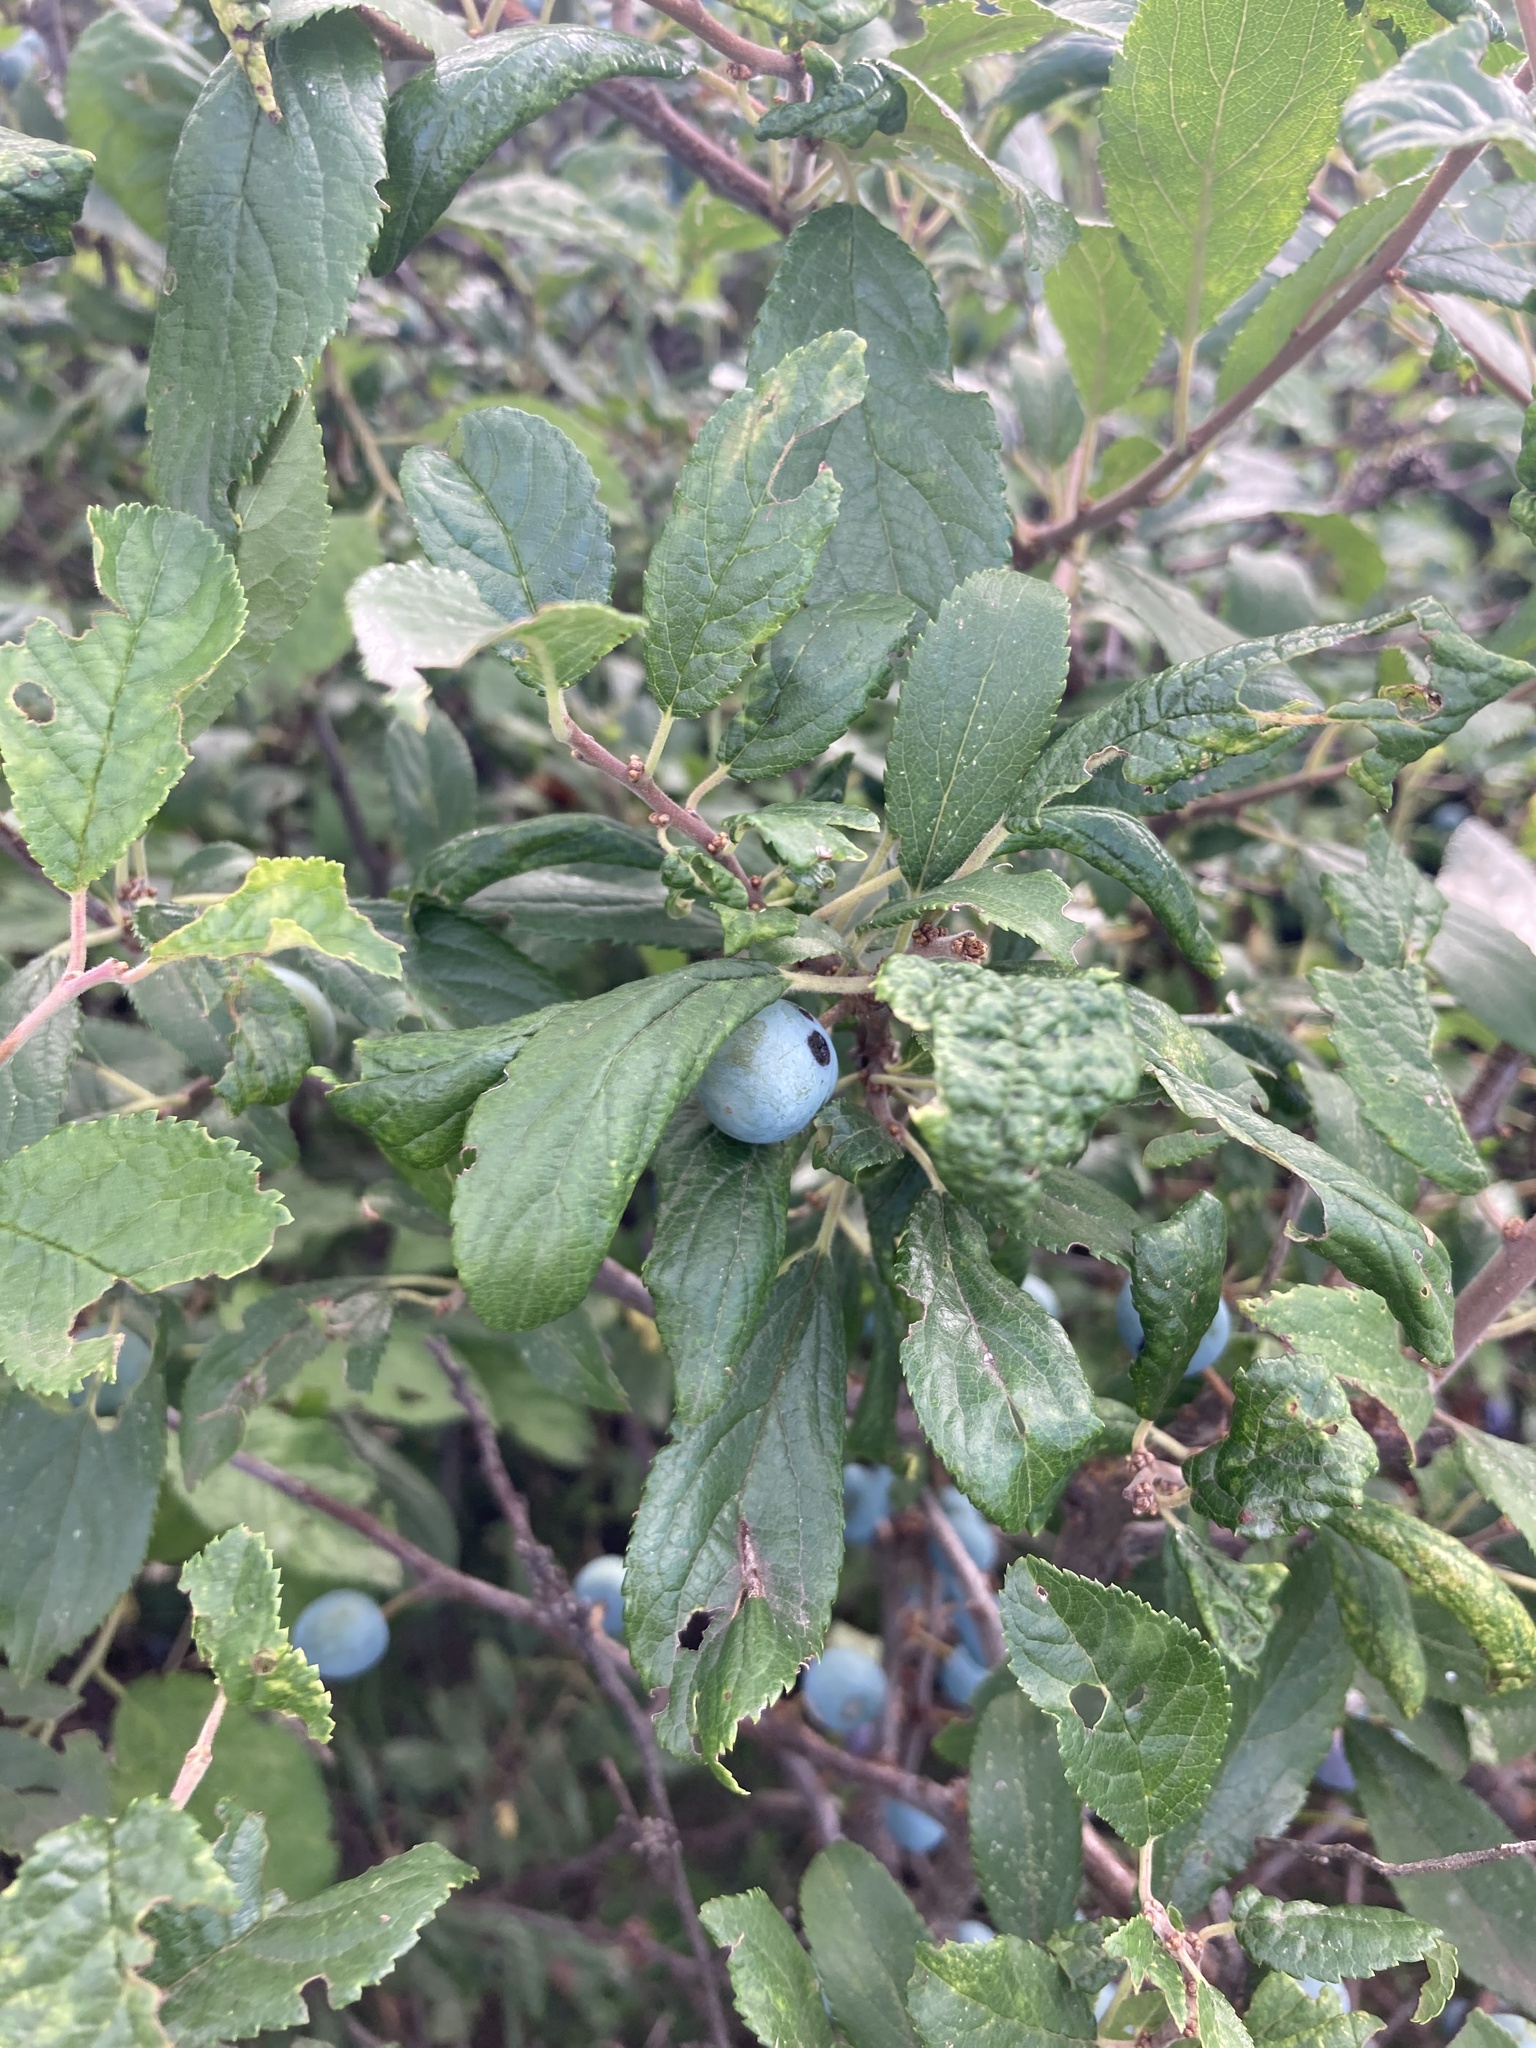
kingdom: Plantae
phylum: Tracheophyta
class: Magnoliopsida
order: Rosales
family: Rosaceae
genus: Prunus
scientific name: Prunus spinosa
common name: Blackthorn
